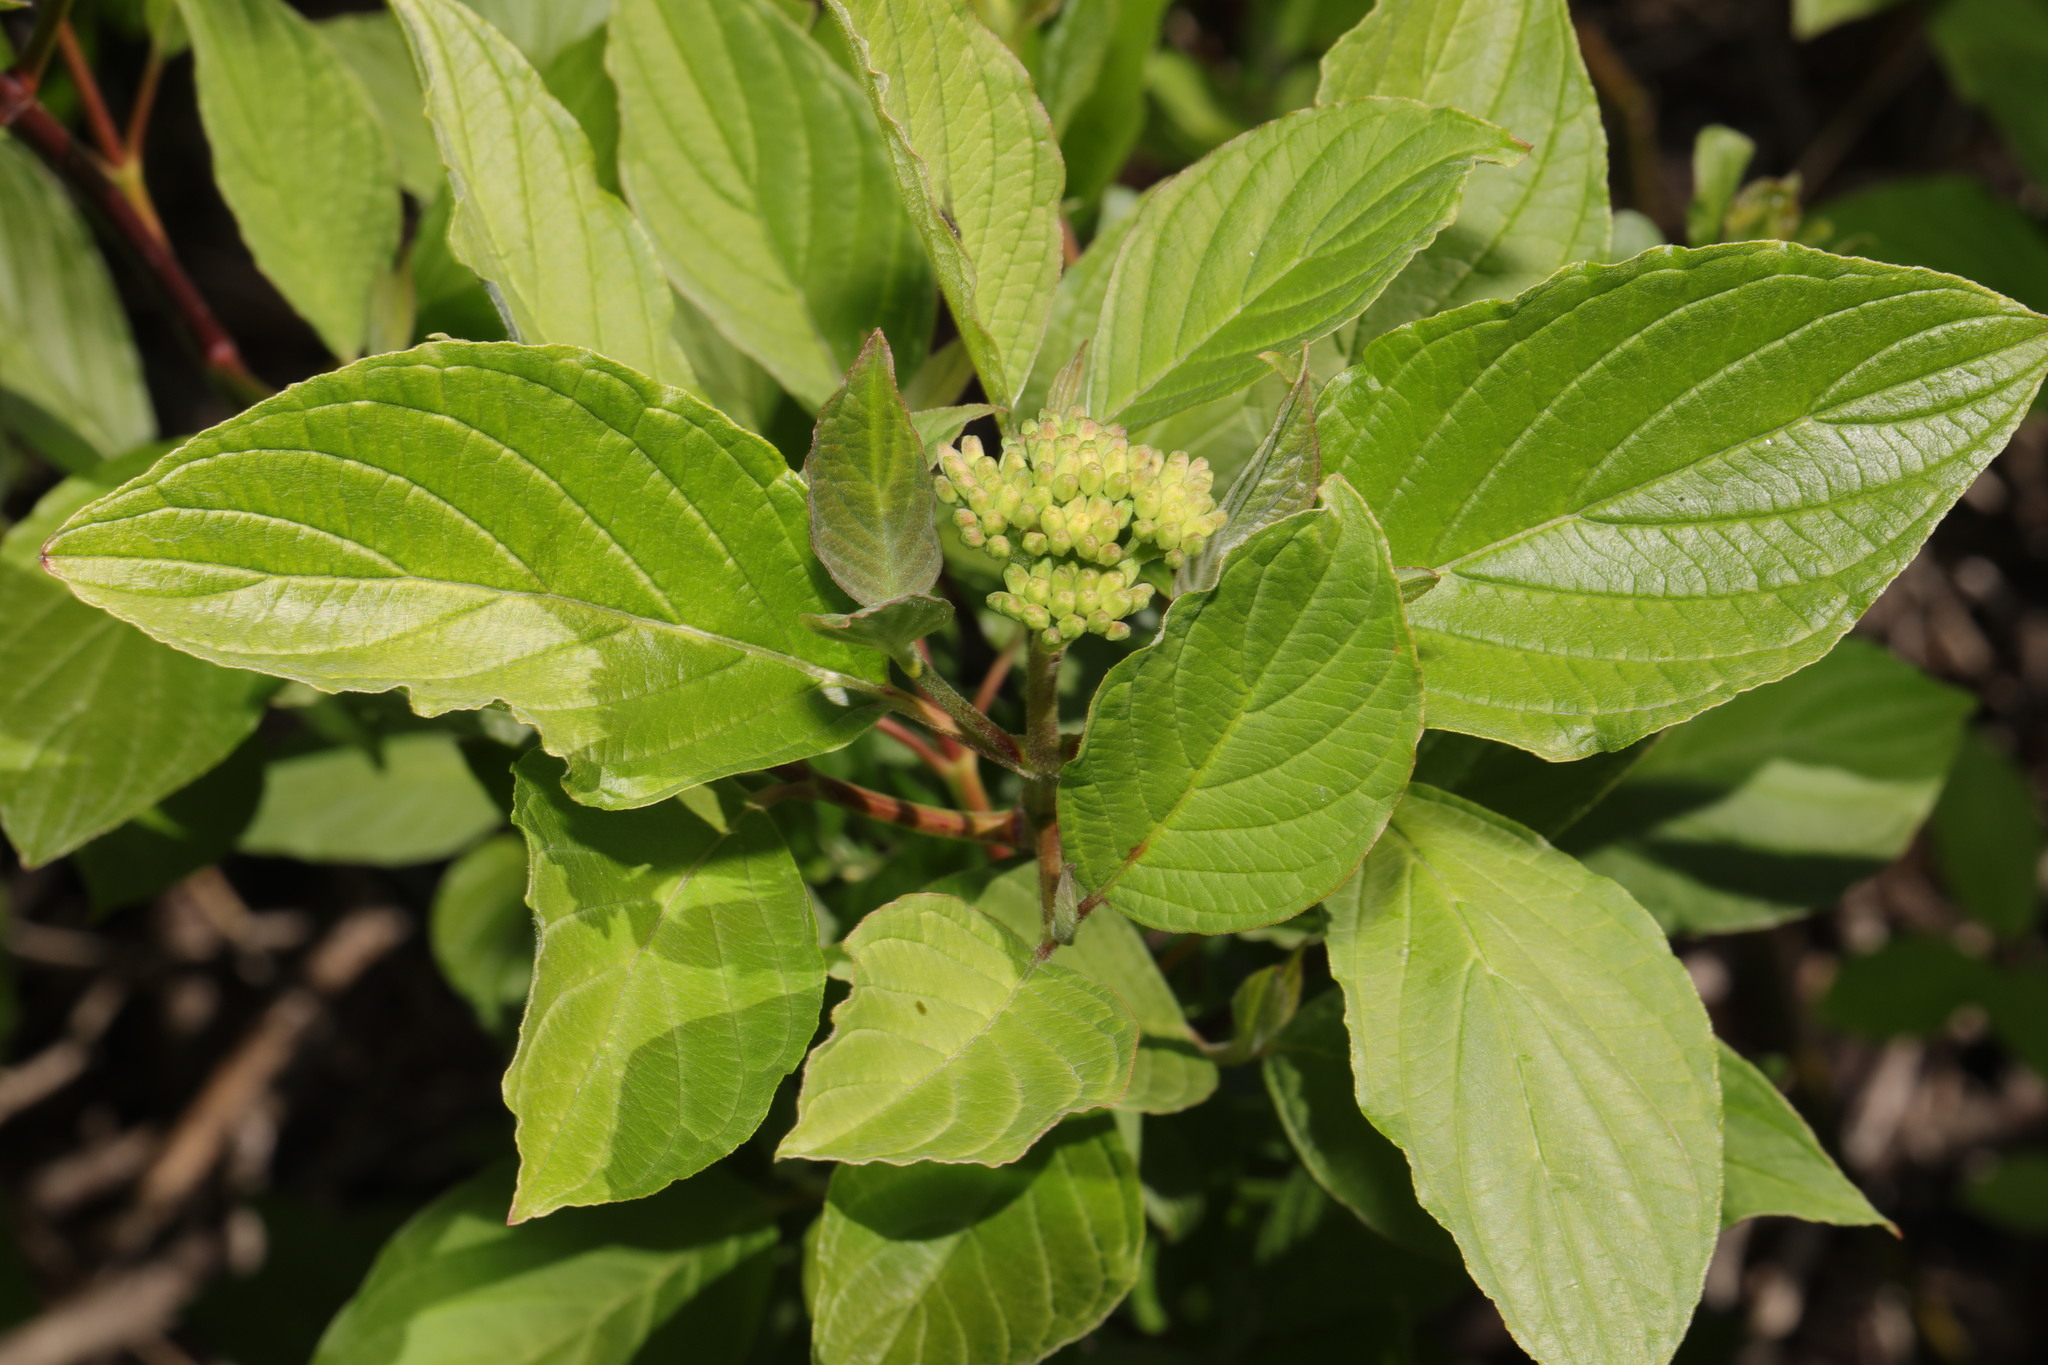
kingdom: Plantae
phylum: Tracheophyta
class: Magnoliopsida
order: Cornales
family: Cornaceae
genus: Cornus
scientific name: Cornus sanguinea
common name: Dogwood
